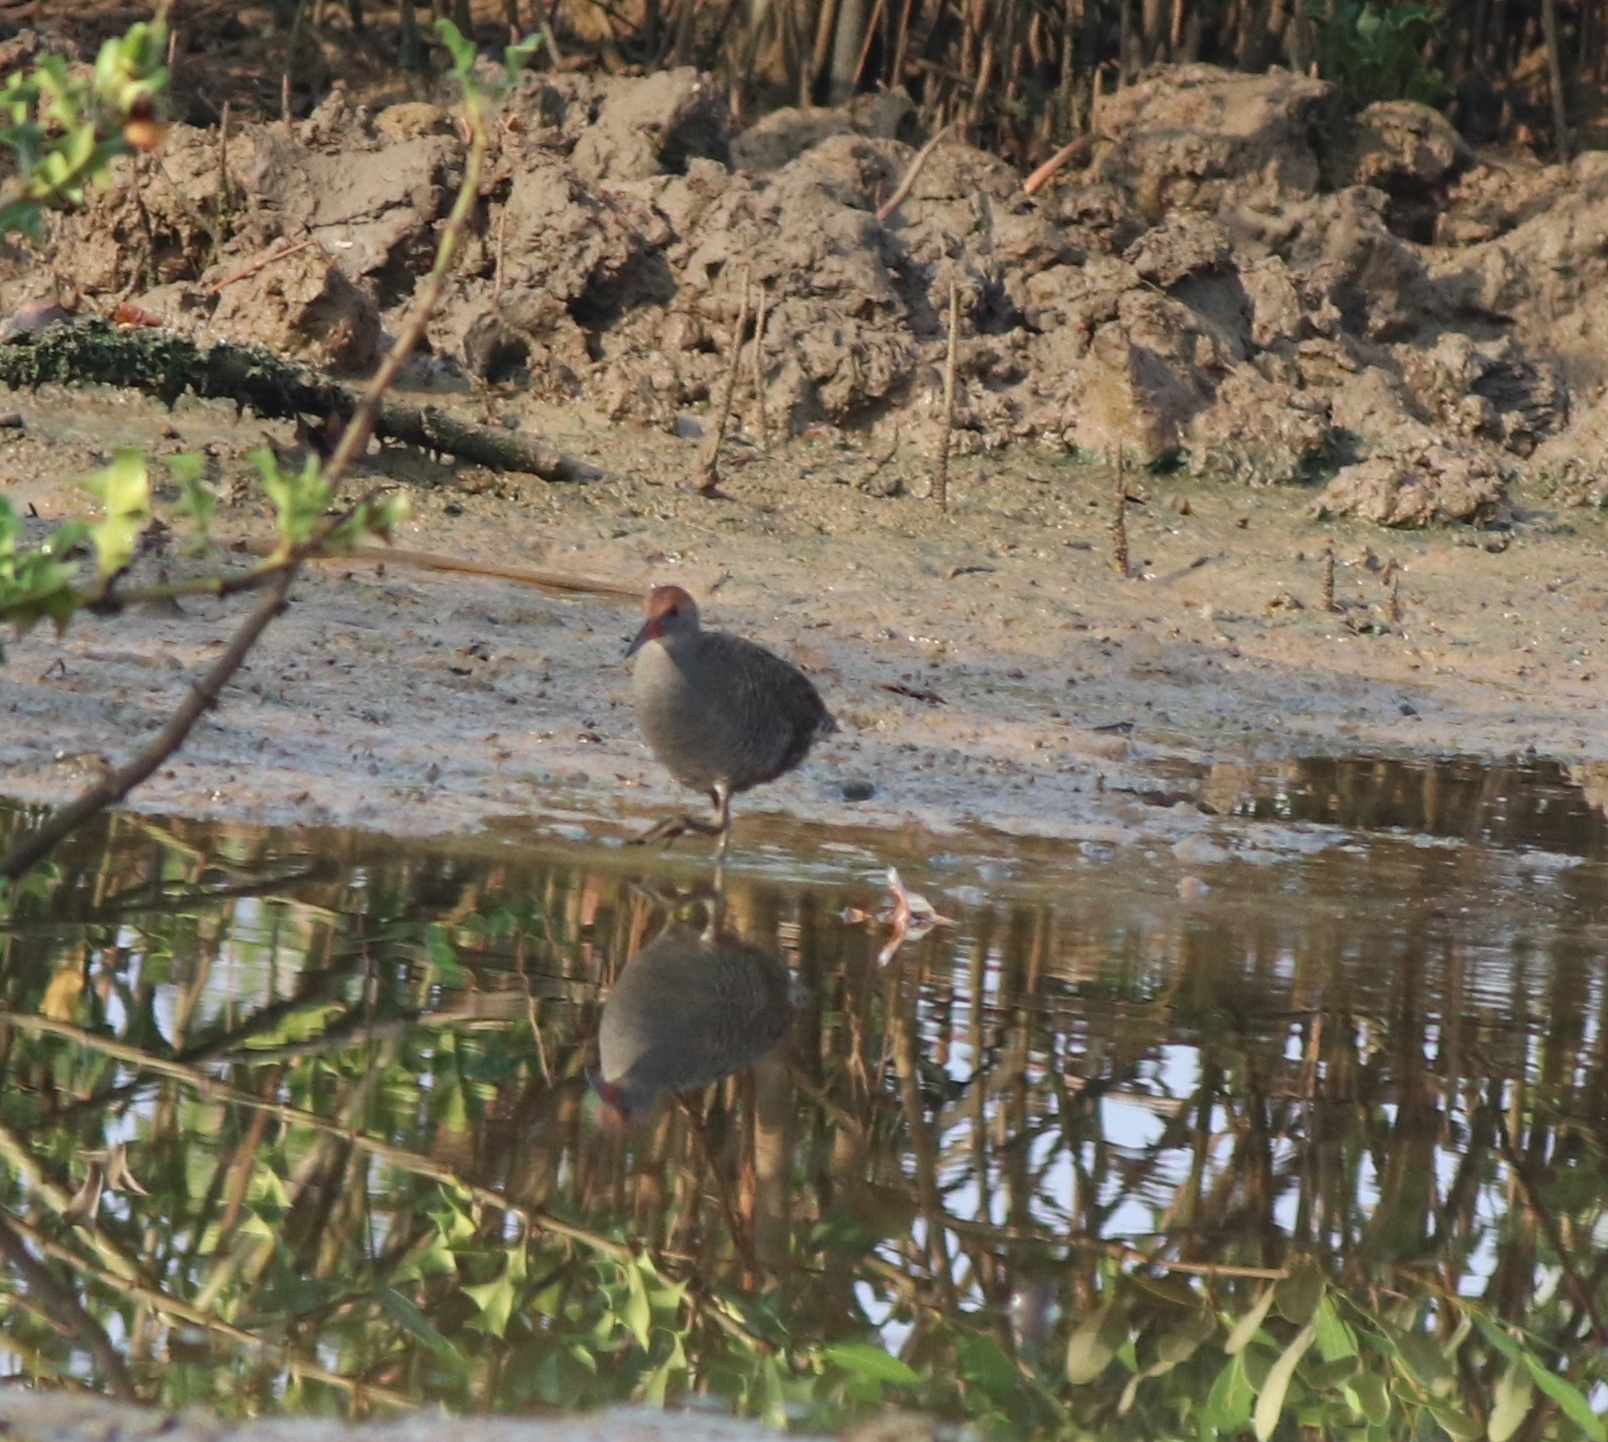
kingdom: Animalia
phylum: Chordata
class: Aves
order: Gruiformes
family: Rallidae
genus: Gallirallus
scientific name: Gallirallus striatus
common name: Slaty-breasted rail
